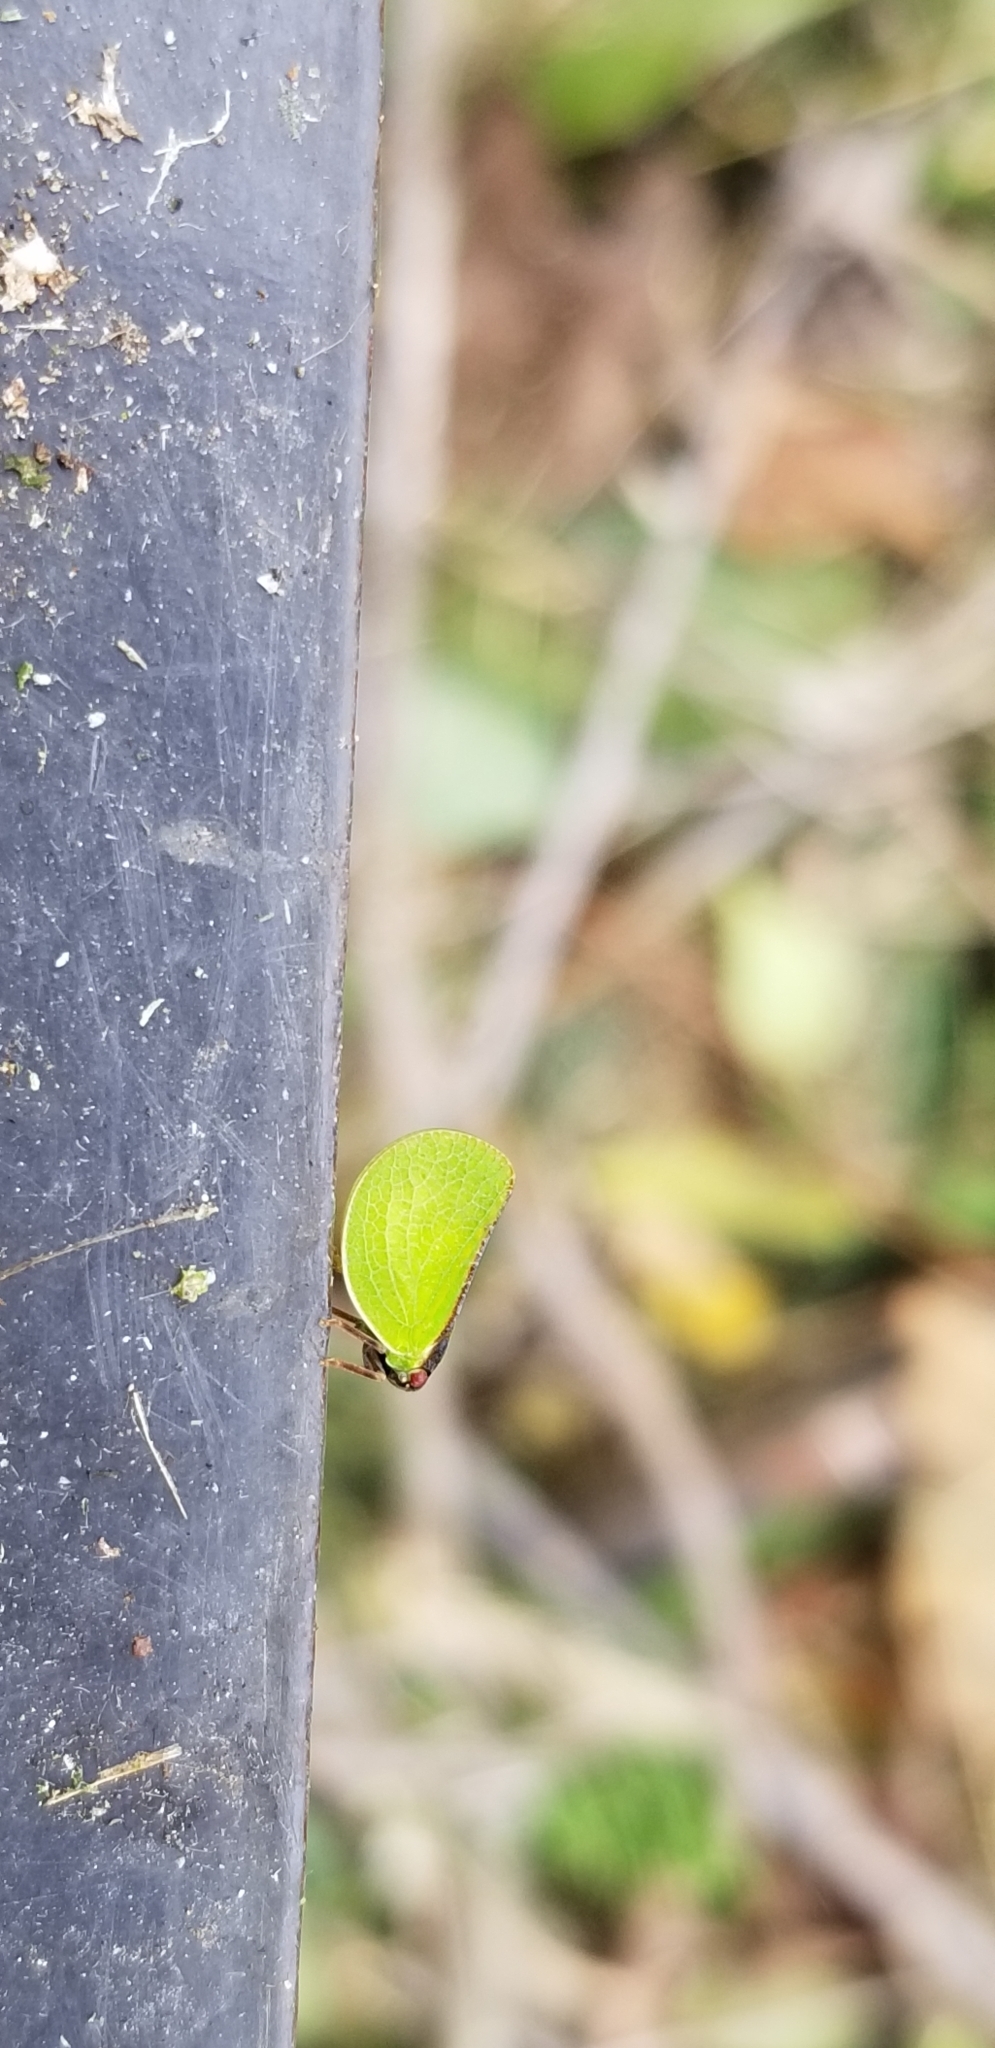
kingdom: Animalia
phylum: Arthropoda
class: Insecta
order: Hemiptera
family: Acanaloniidae
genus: Acanalonia
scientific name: Acanalonia bivittata
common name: Two-striped planthopper
